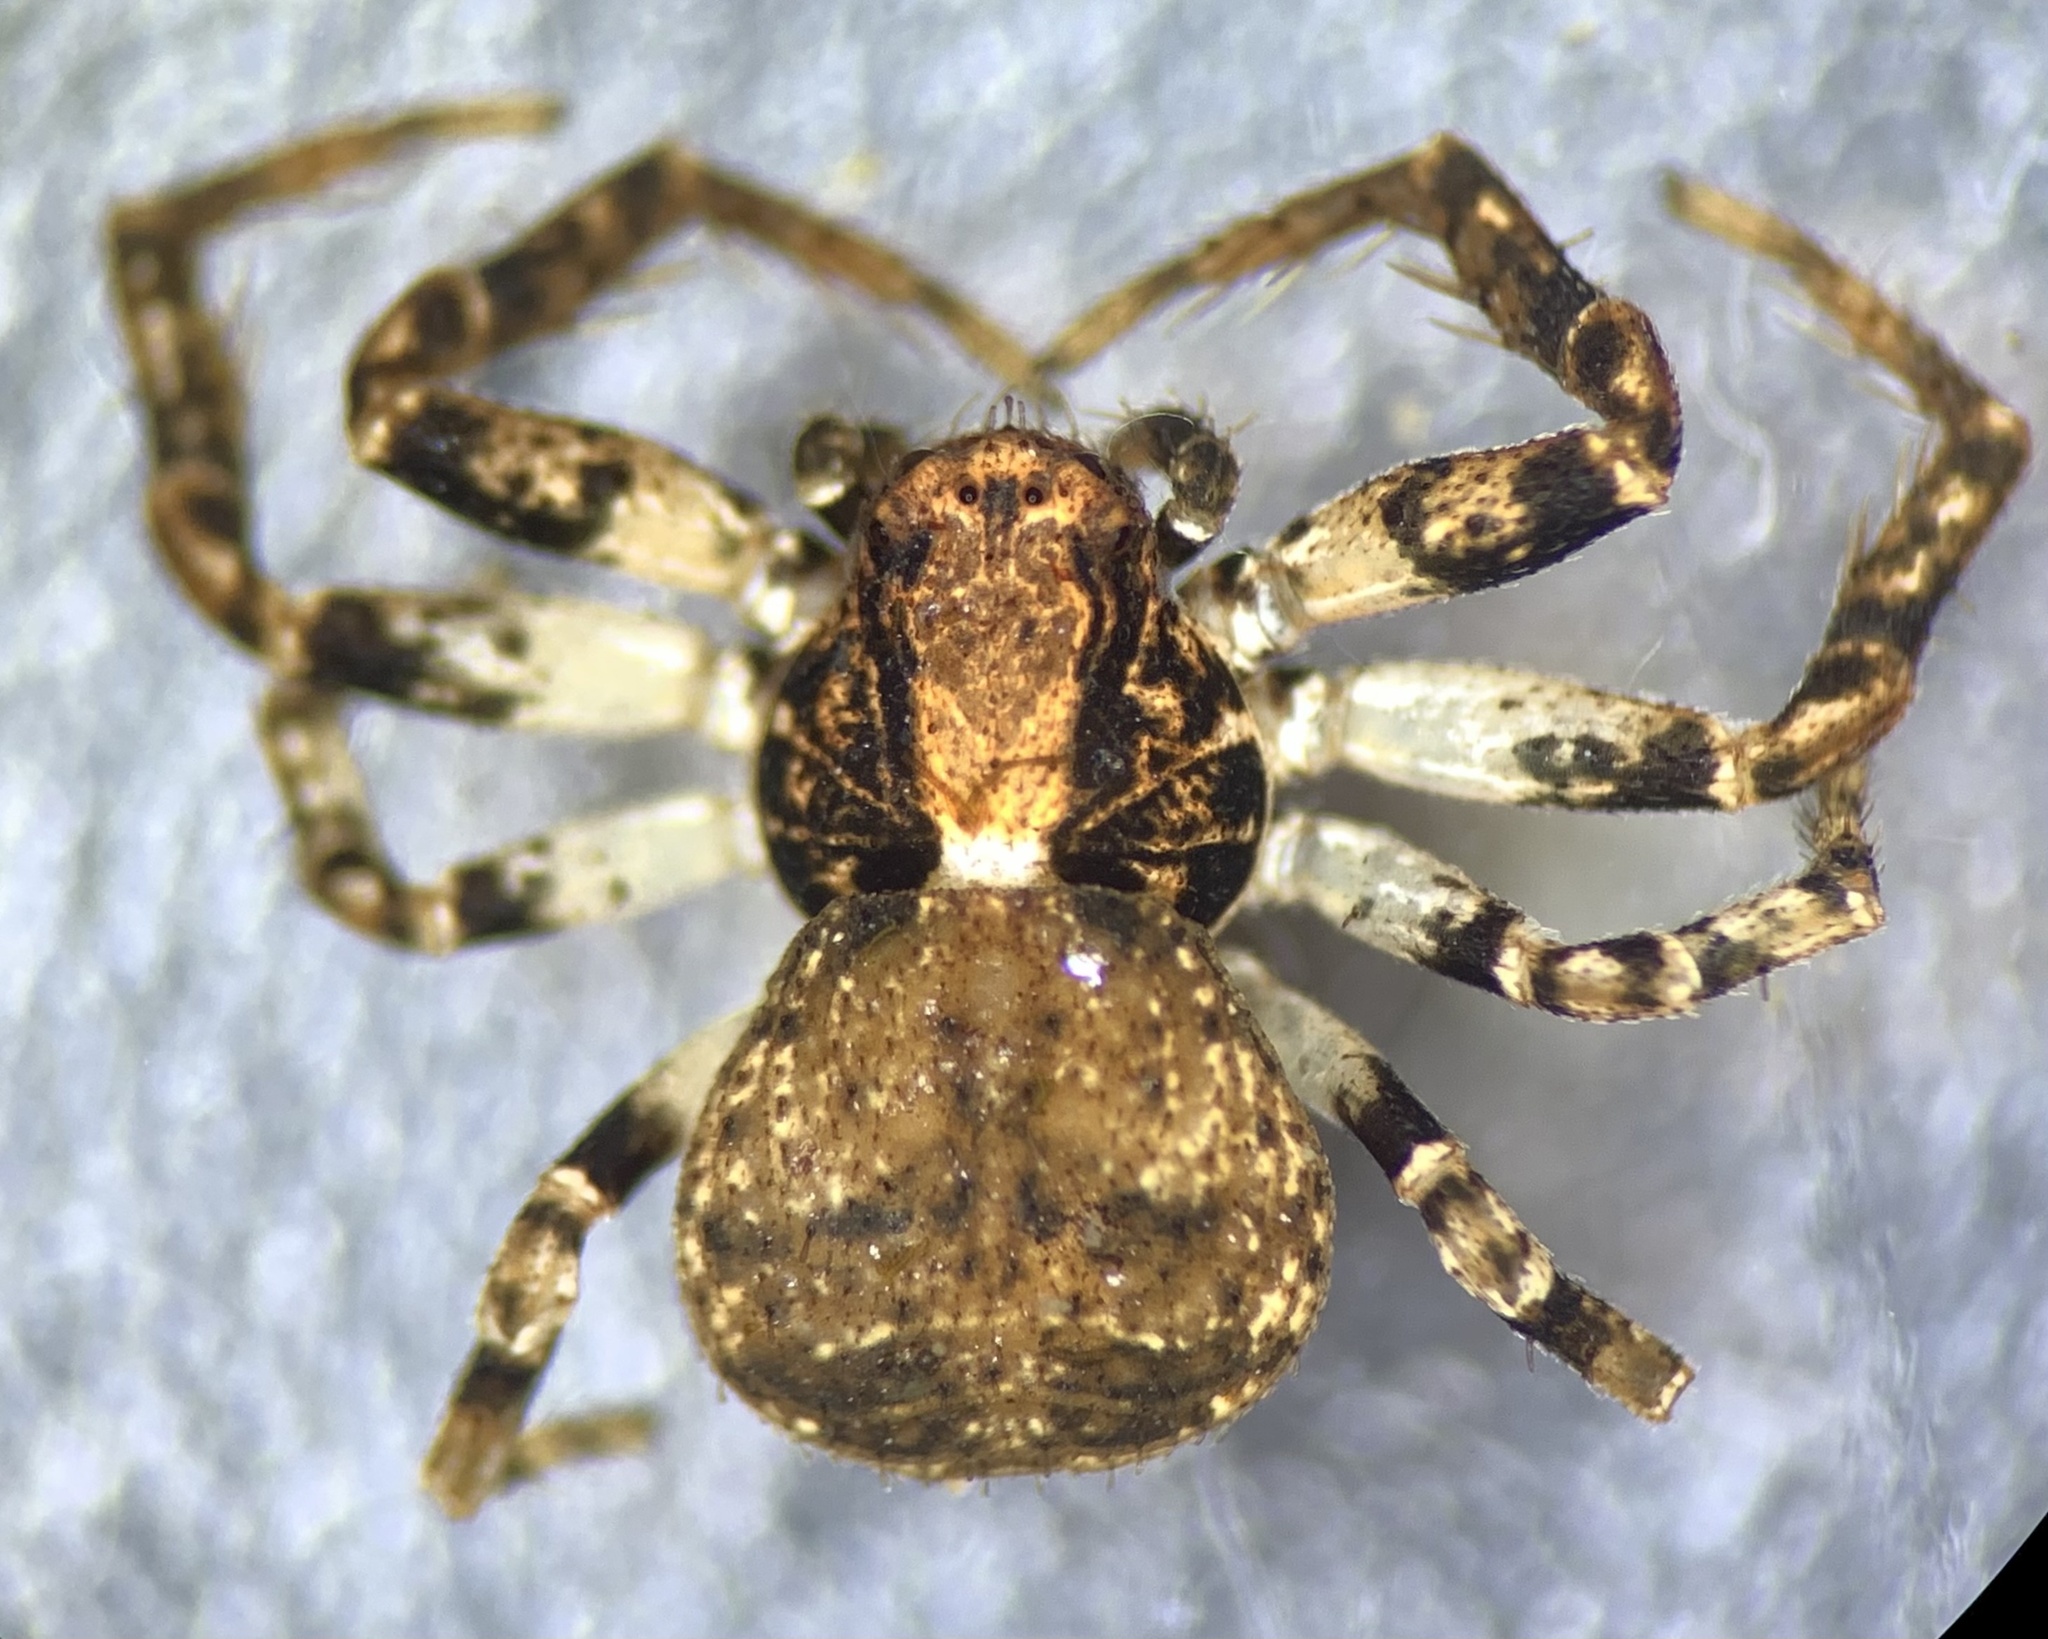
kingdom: Animalia
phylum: Arthropoda
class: Arachnida
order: Araneae
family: Thomisidae
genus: Ozyptila
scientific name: Ozyptila praticola
